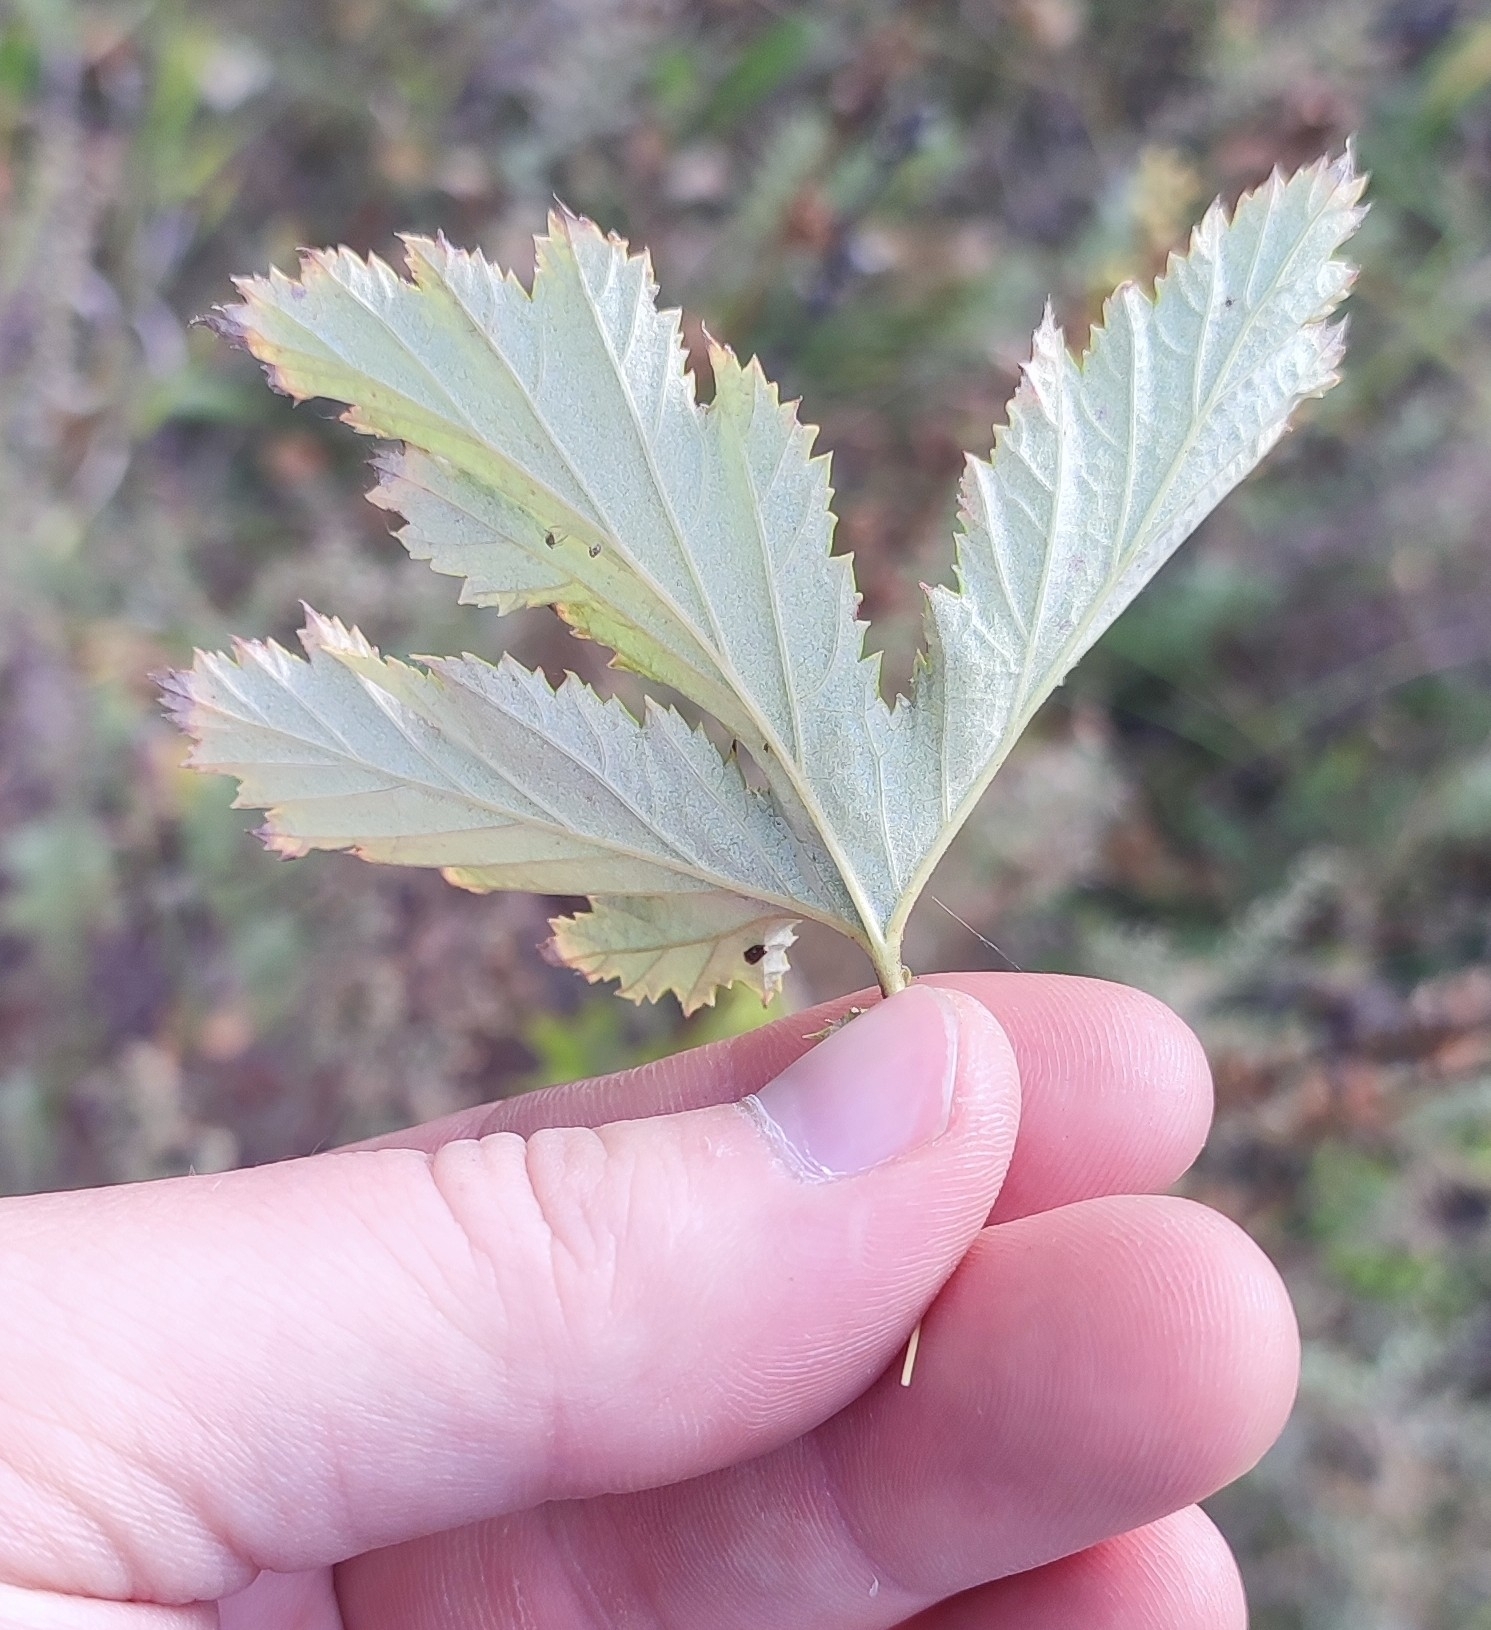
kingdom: Plantae
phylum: Tracheophyta
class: Magnoliopsida
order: Rosales
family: Rosaceae
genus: Filipendula
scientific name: Filipendula ulmaria
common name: Meadowsweet
